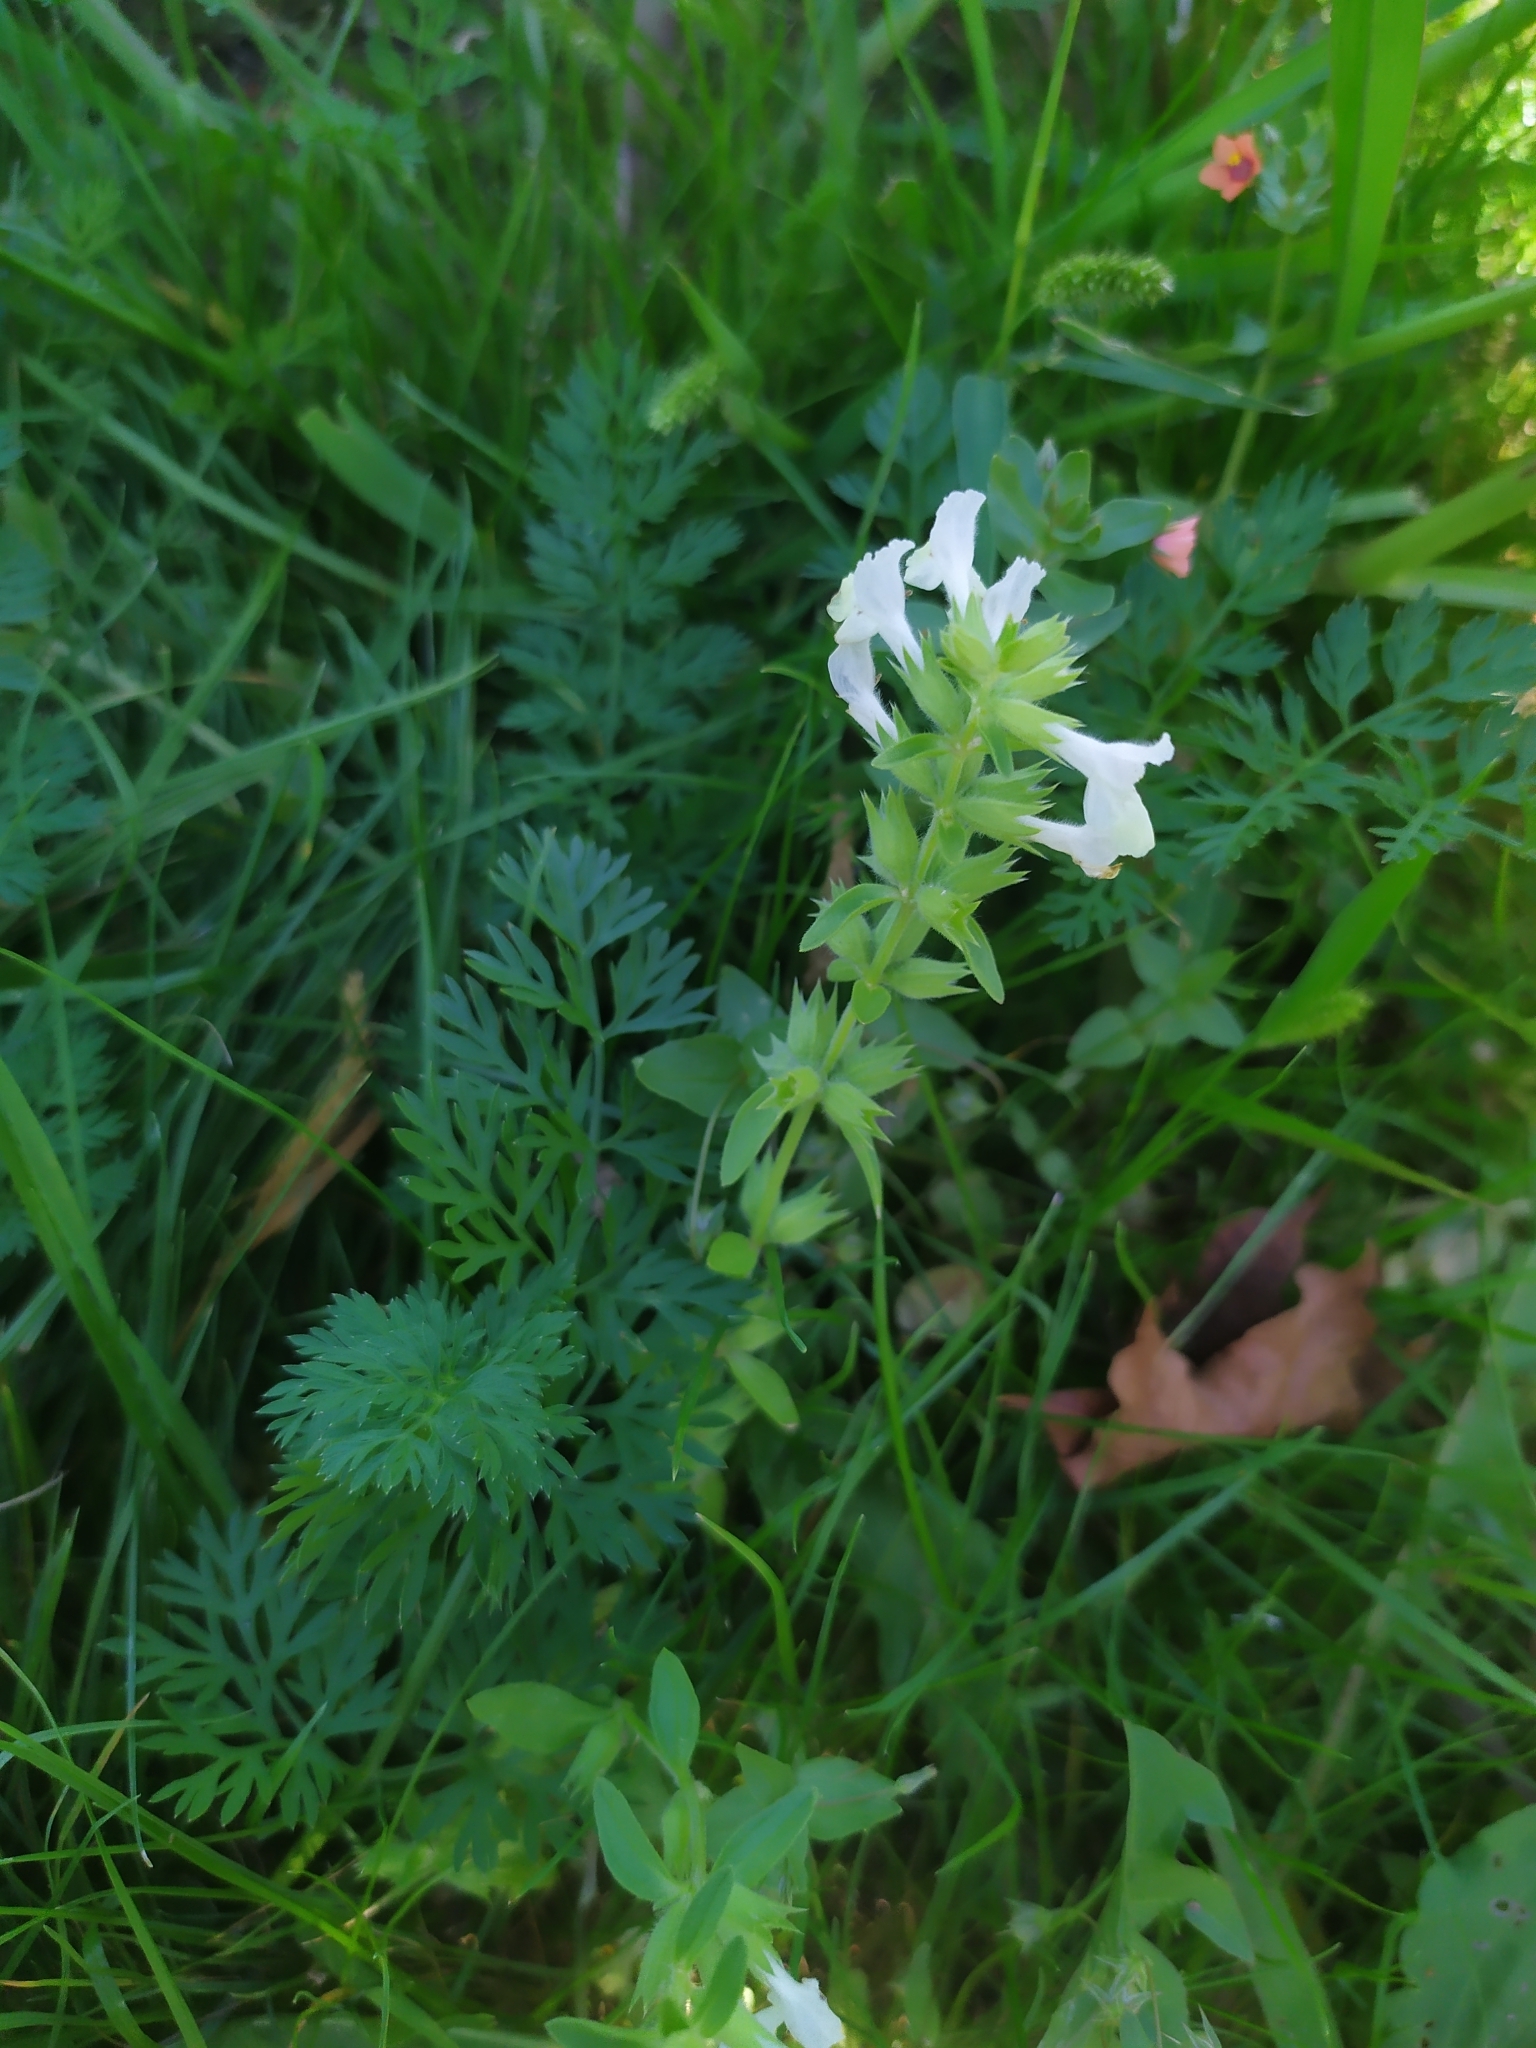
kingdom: Plantae
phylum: Tracheophyta
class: Magnoliopsida
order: Lamiales
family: Lamiaceae
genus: Stachys
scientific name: Stachys annua
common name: Annual yellow-woundwort
